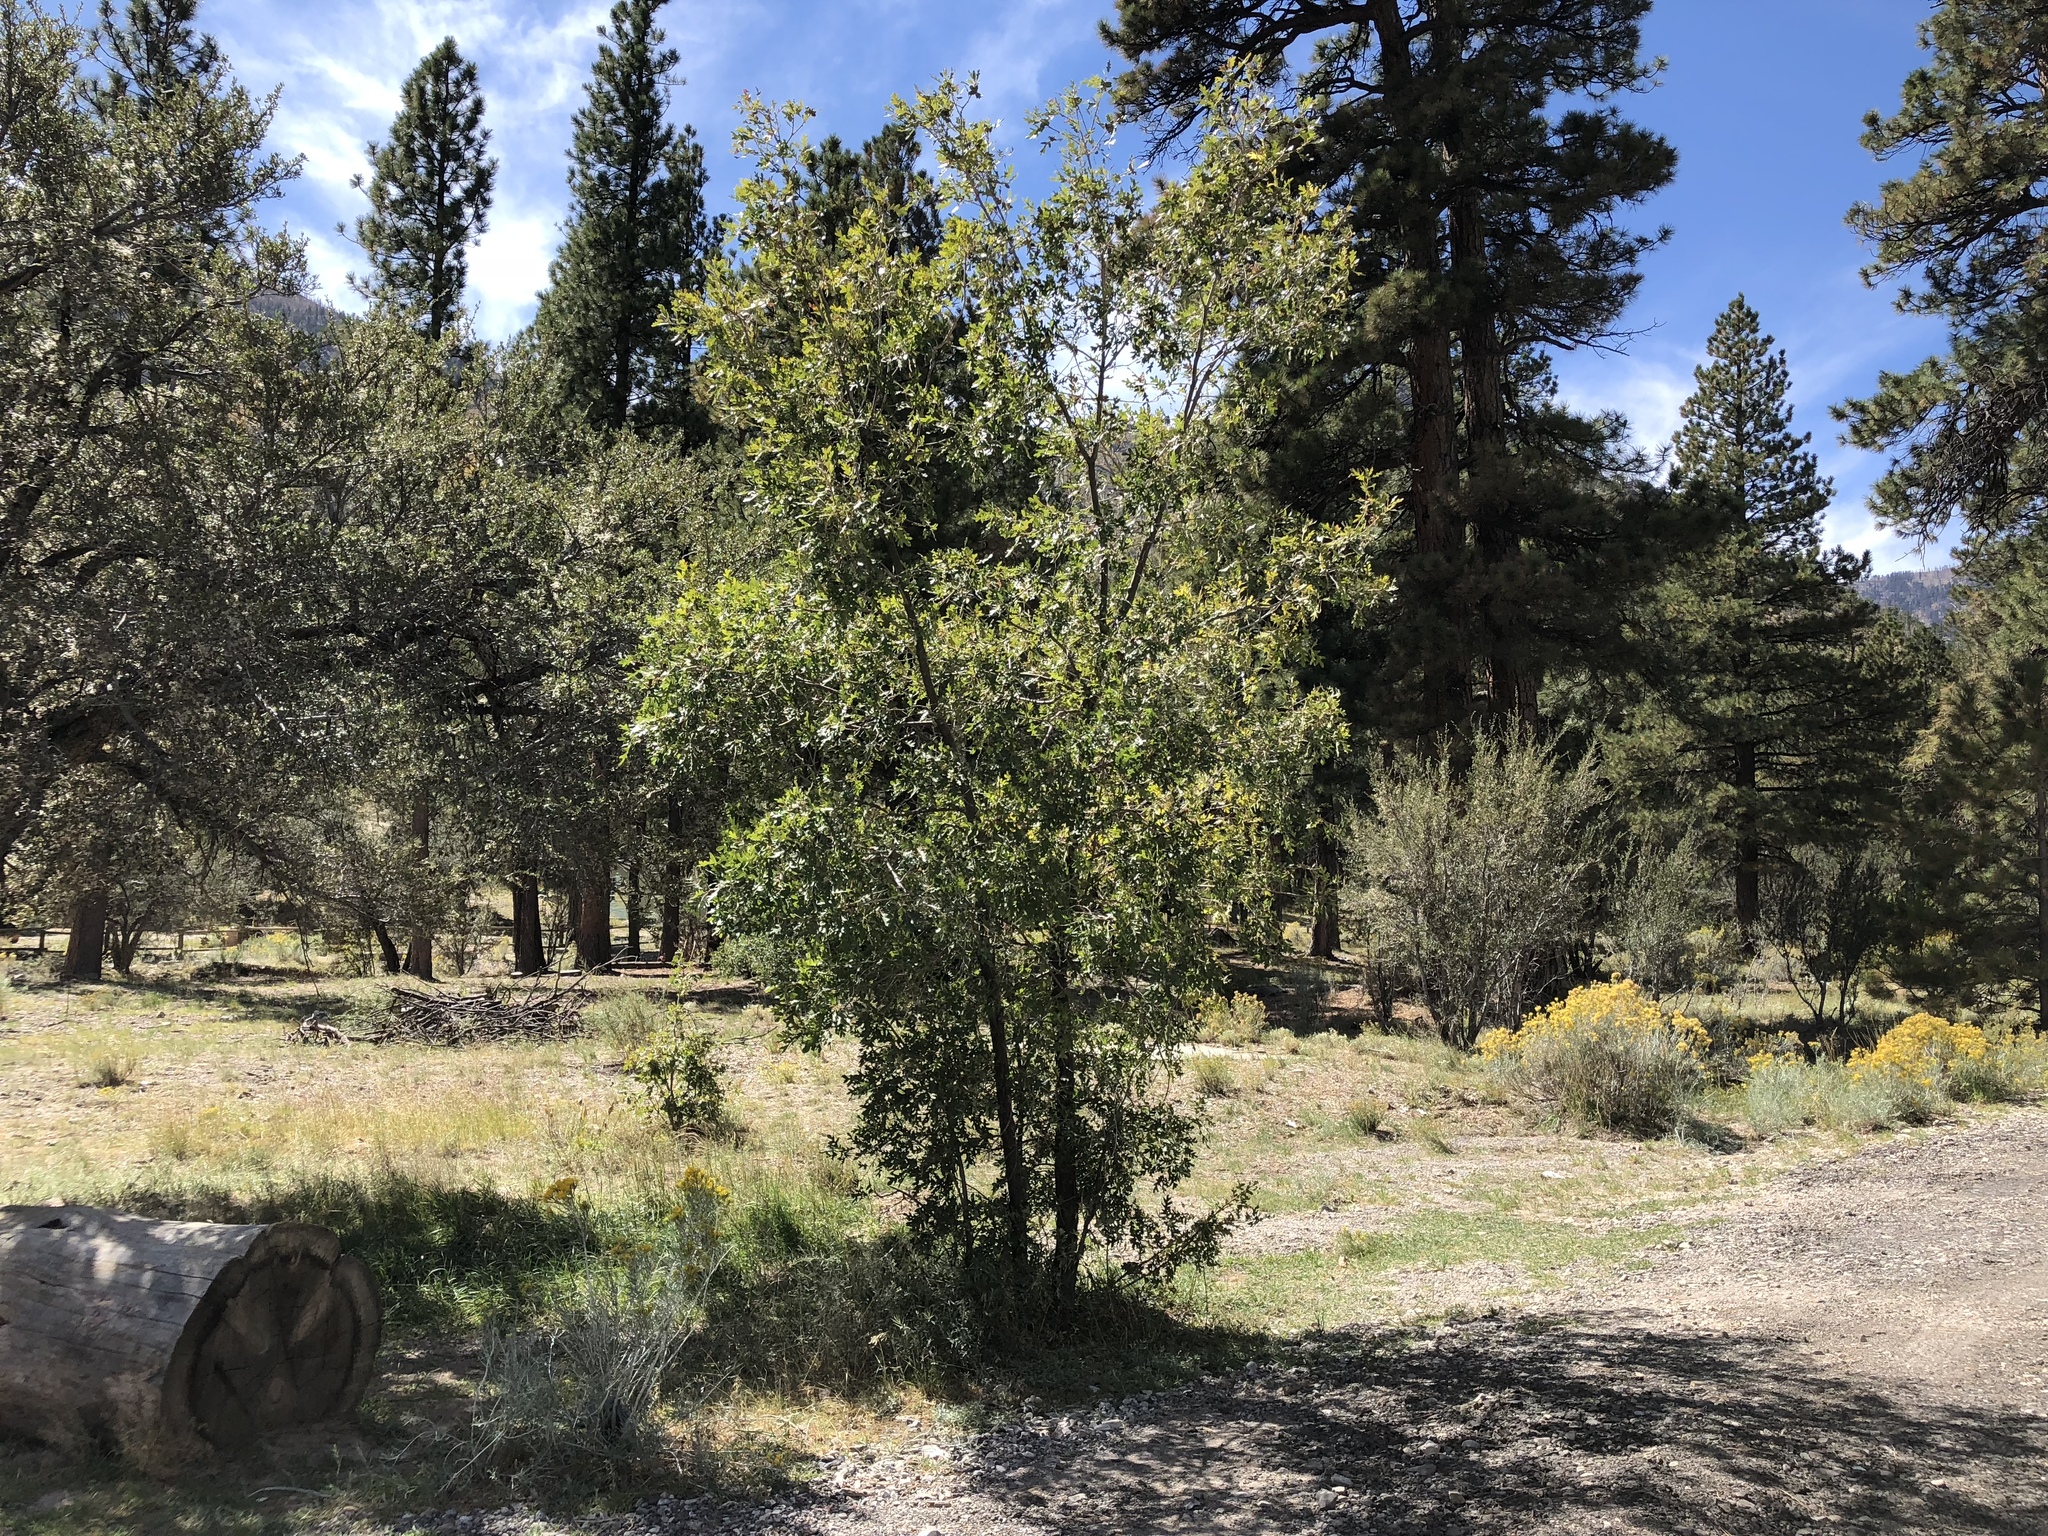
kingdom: Plantae
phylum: Tracheophyta
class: Magnoliopsida
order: Fagales
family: Fagaceae
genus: Quercus
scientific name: Quercus gambelii
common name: Gambel oak
